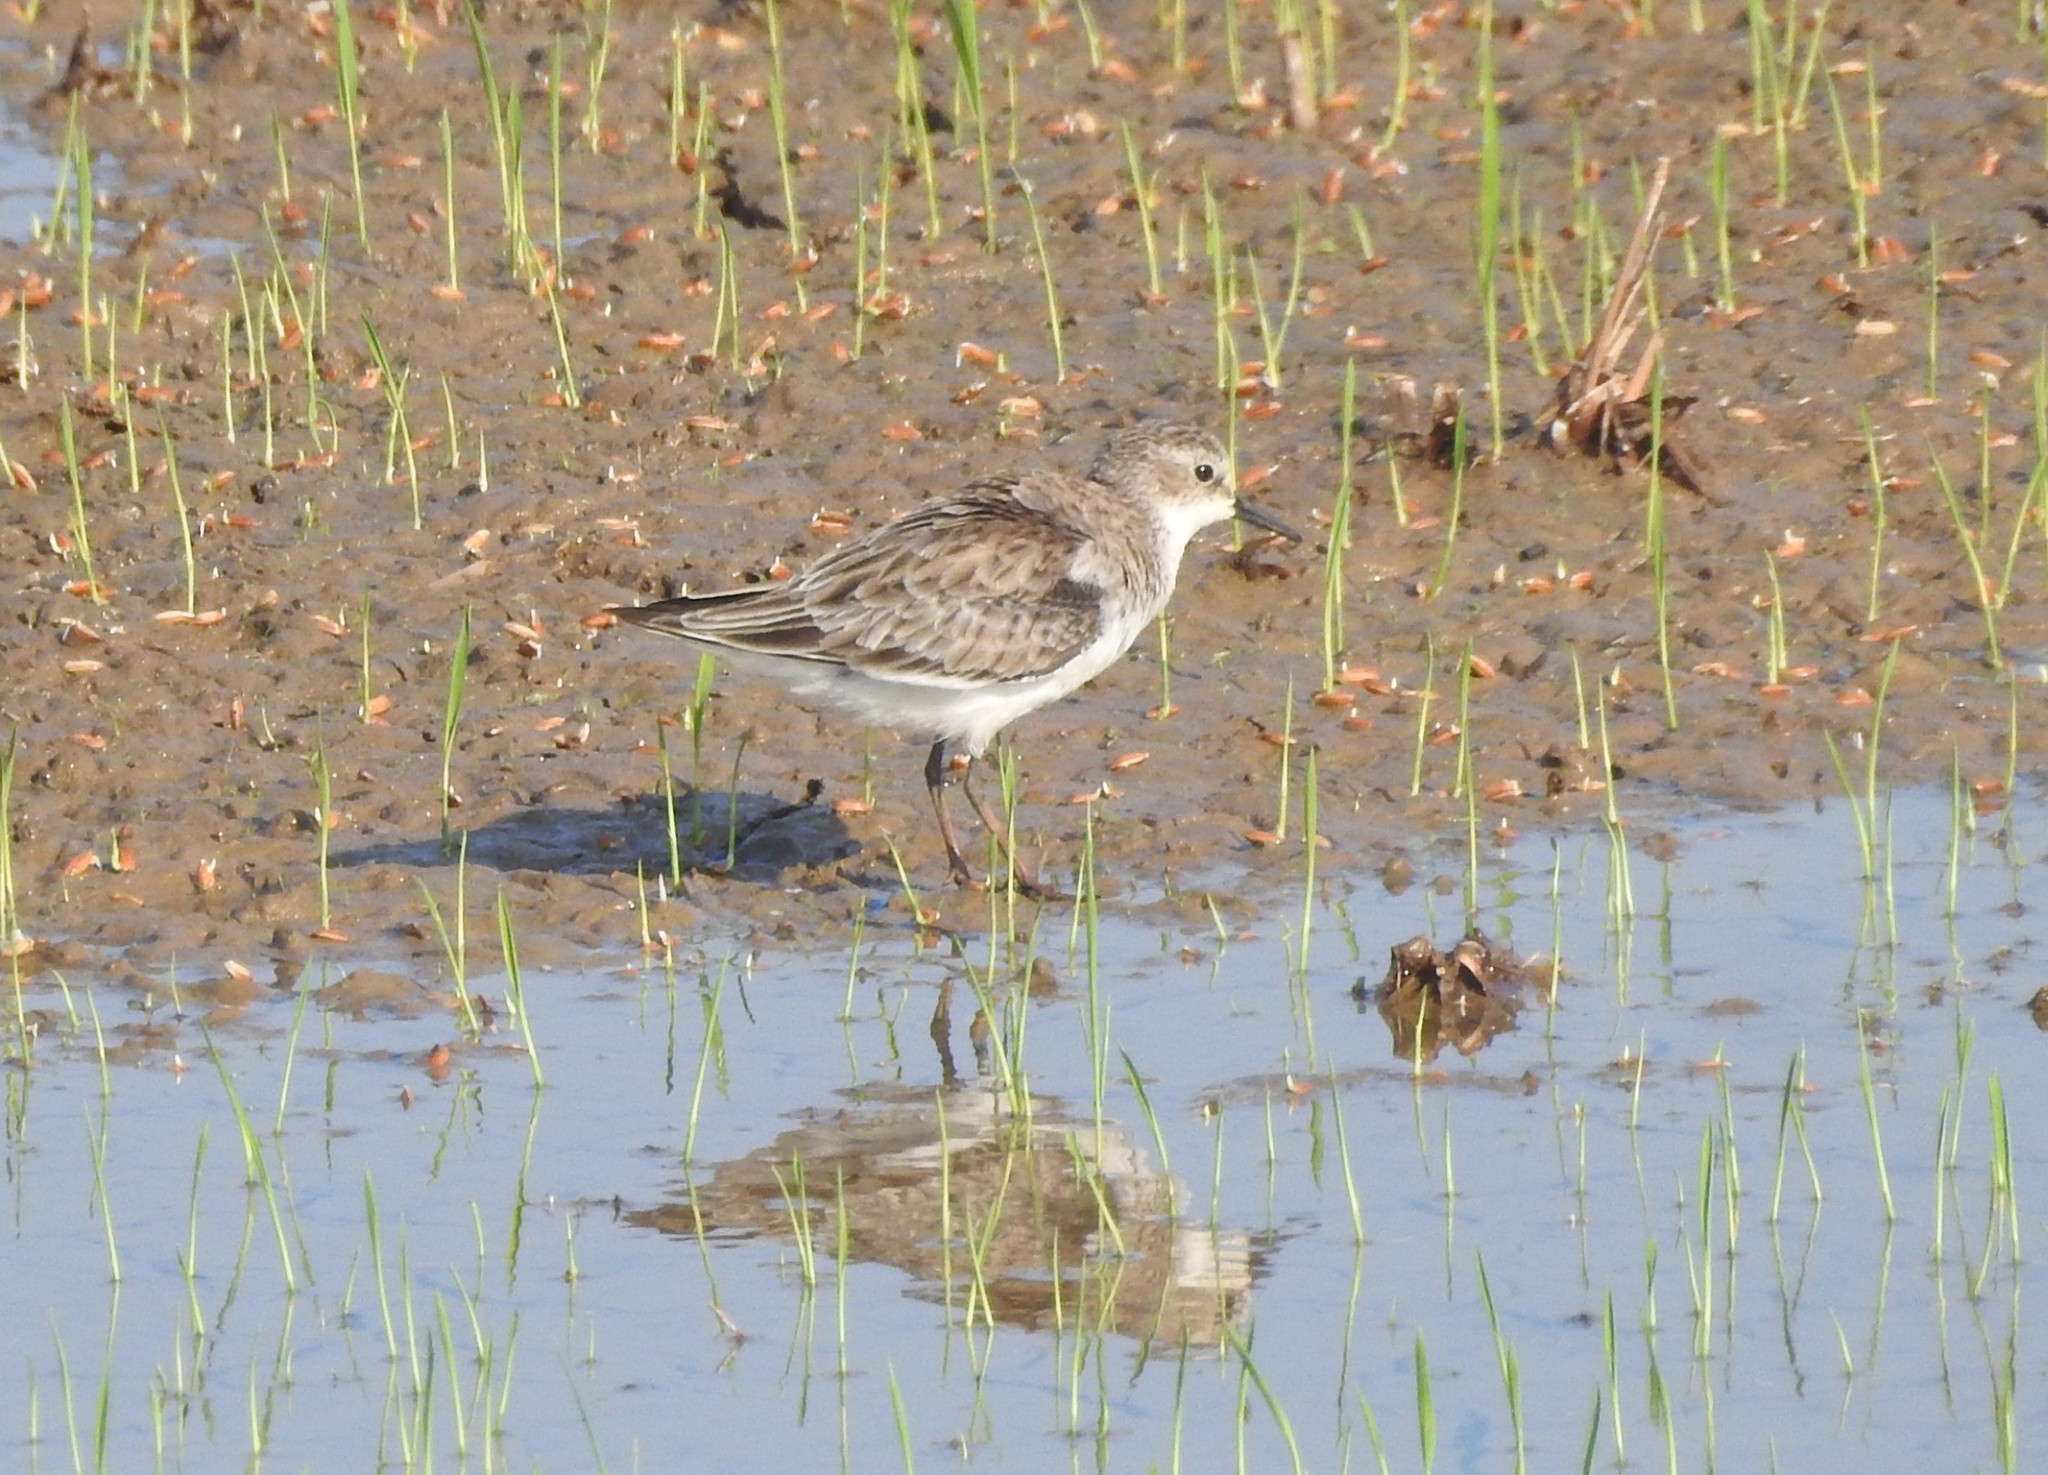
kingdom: Animalia
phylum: Chordata
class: Aves
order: Charadriiformes
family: Scolopacidae
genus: Calidris
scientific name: Calidris minuta
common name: Little stint
